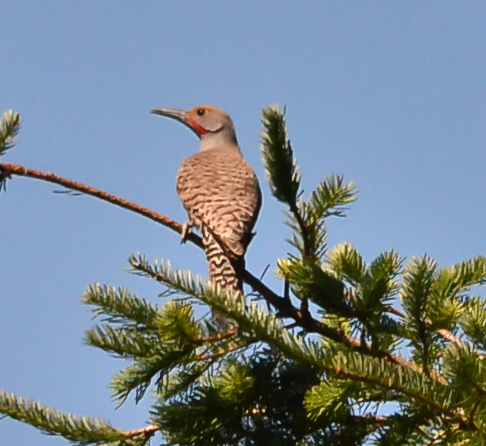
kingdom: Animalia
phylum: Chordata
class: Aves
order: Piciformes
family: Picidae
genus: Colaptes
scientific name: Colaptes auratus
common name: Northern flicker
